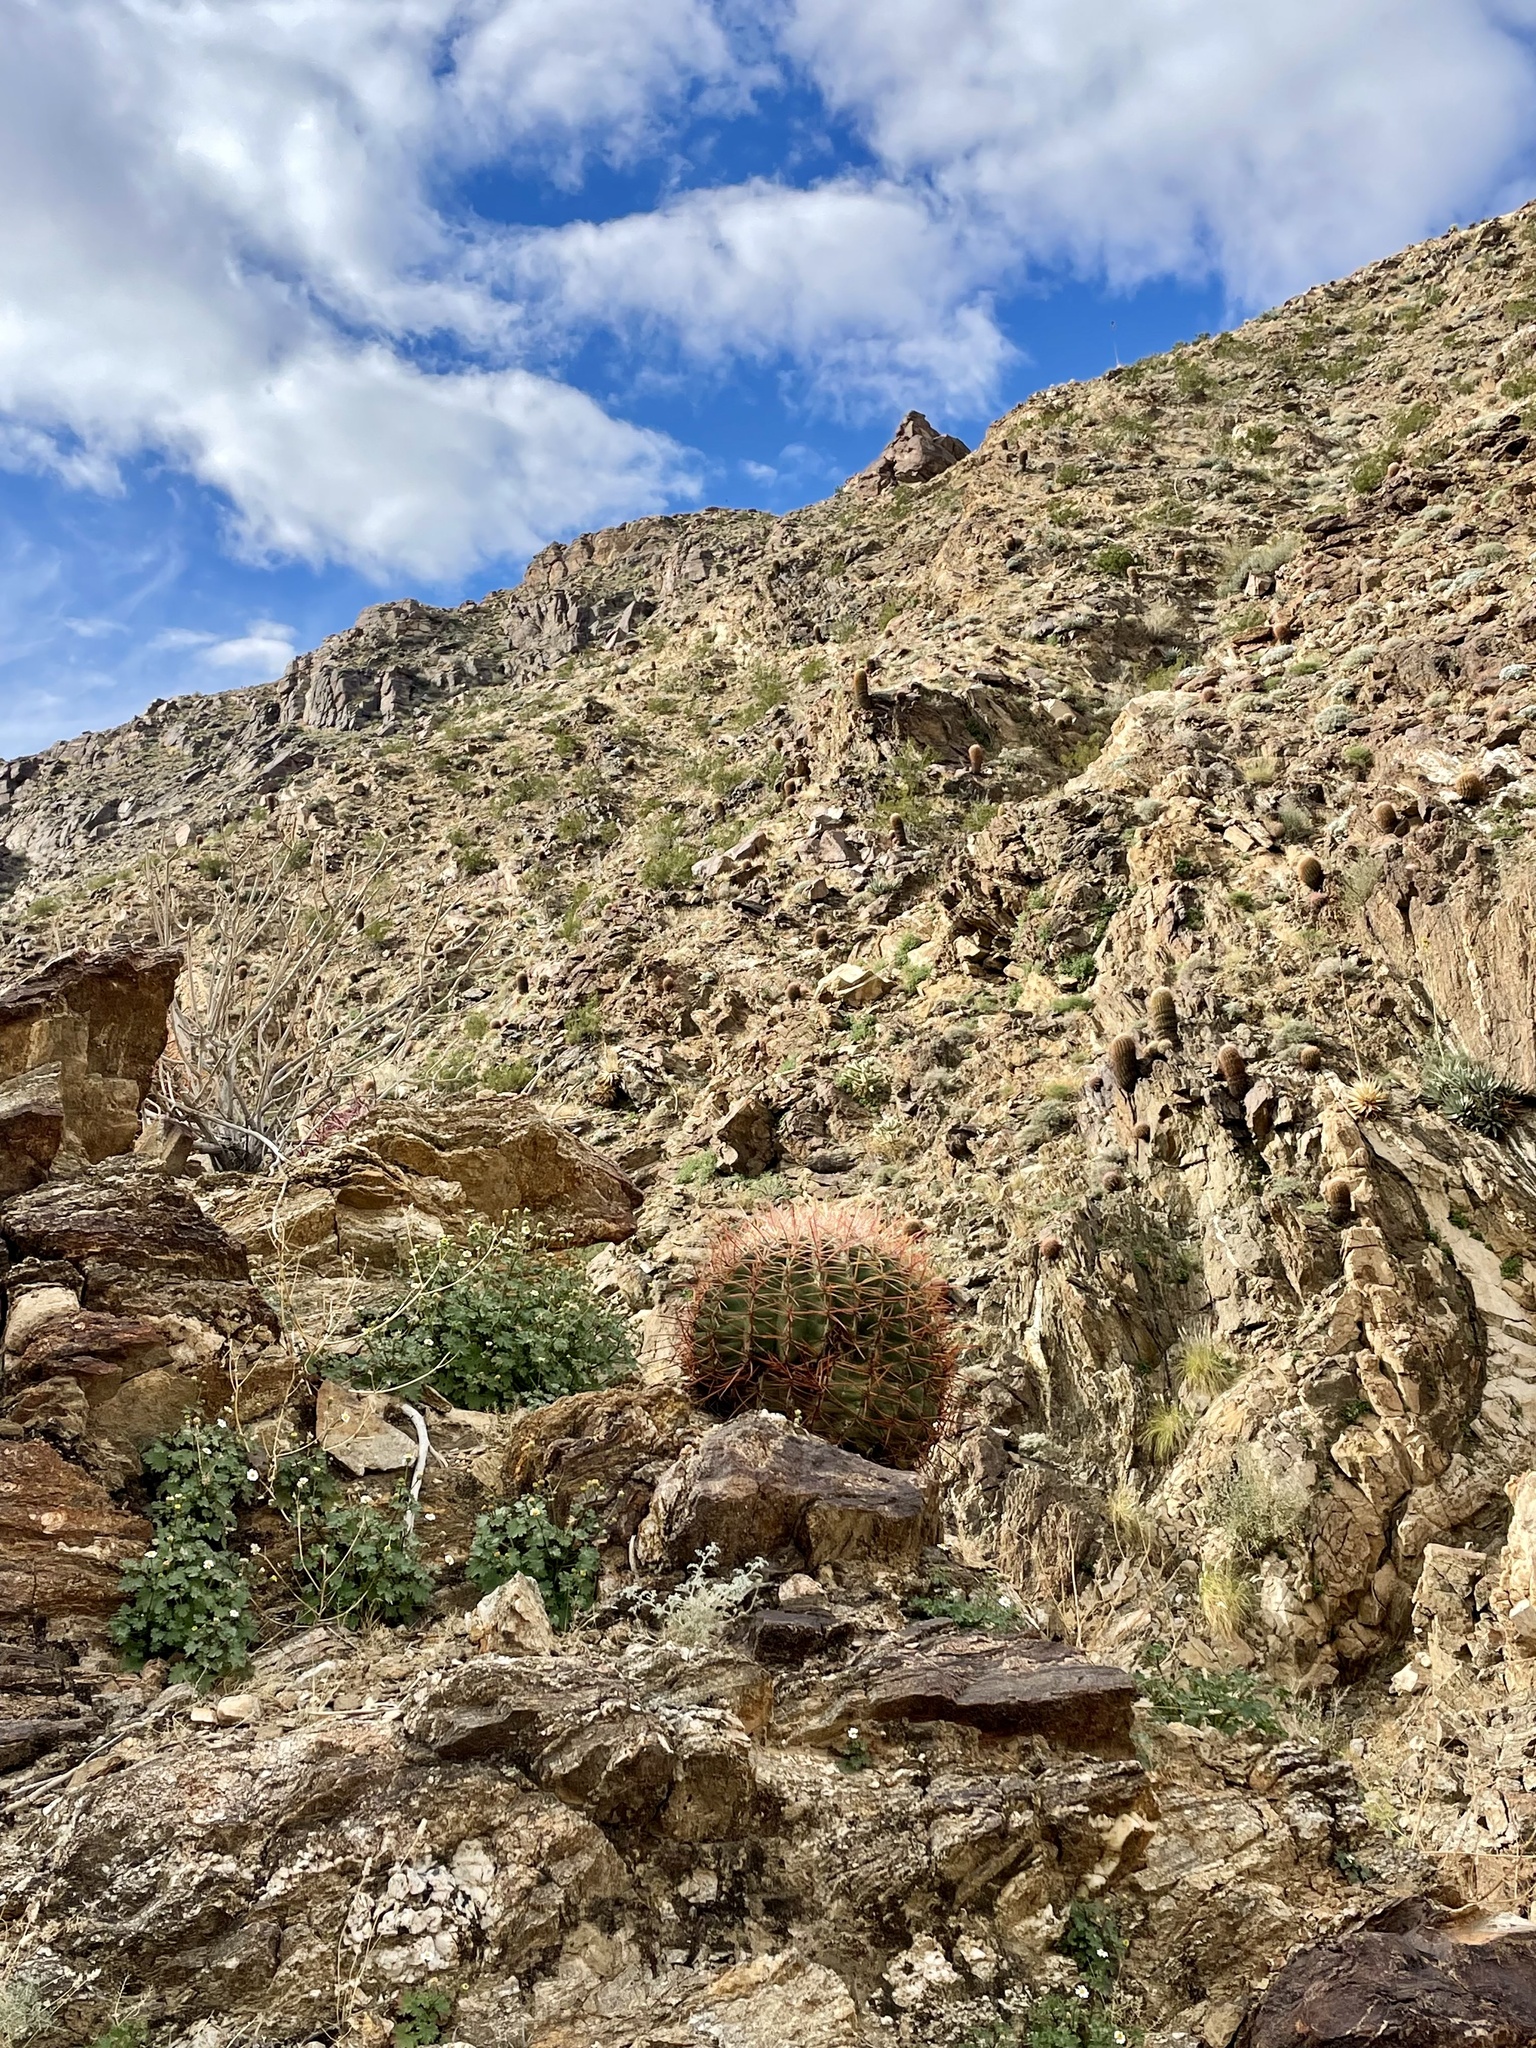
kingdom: Plantae
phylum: Tracheophyta
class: Magnoliopsida
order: Caryophyllales
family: Cactaceae
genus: Ferocactus
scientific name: Ferocactus cylindraceus
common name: California barrel cactus
